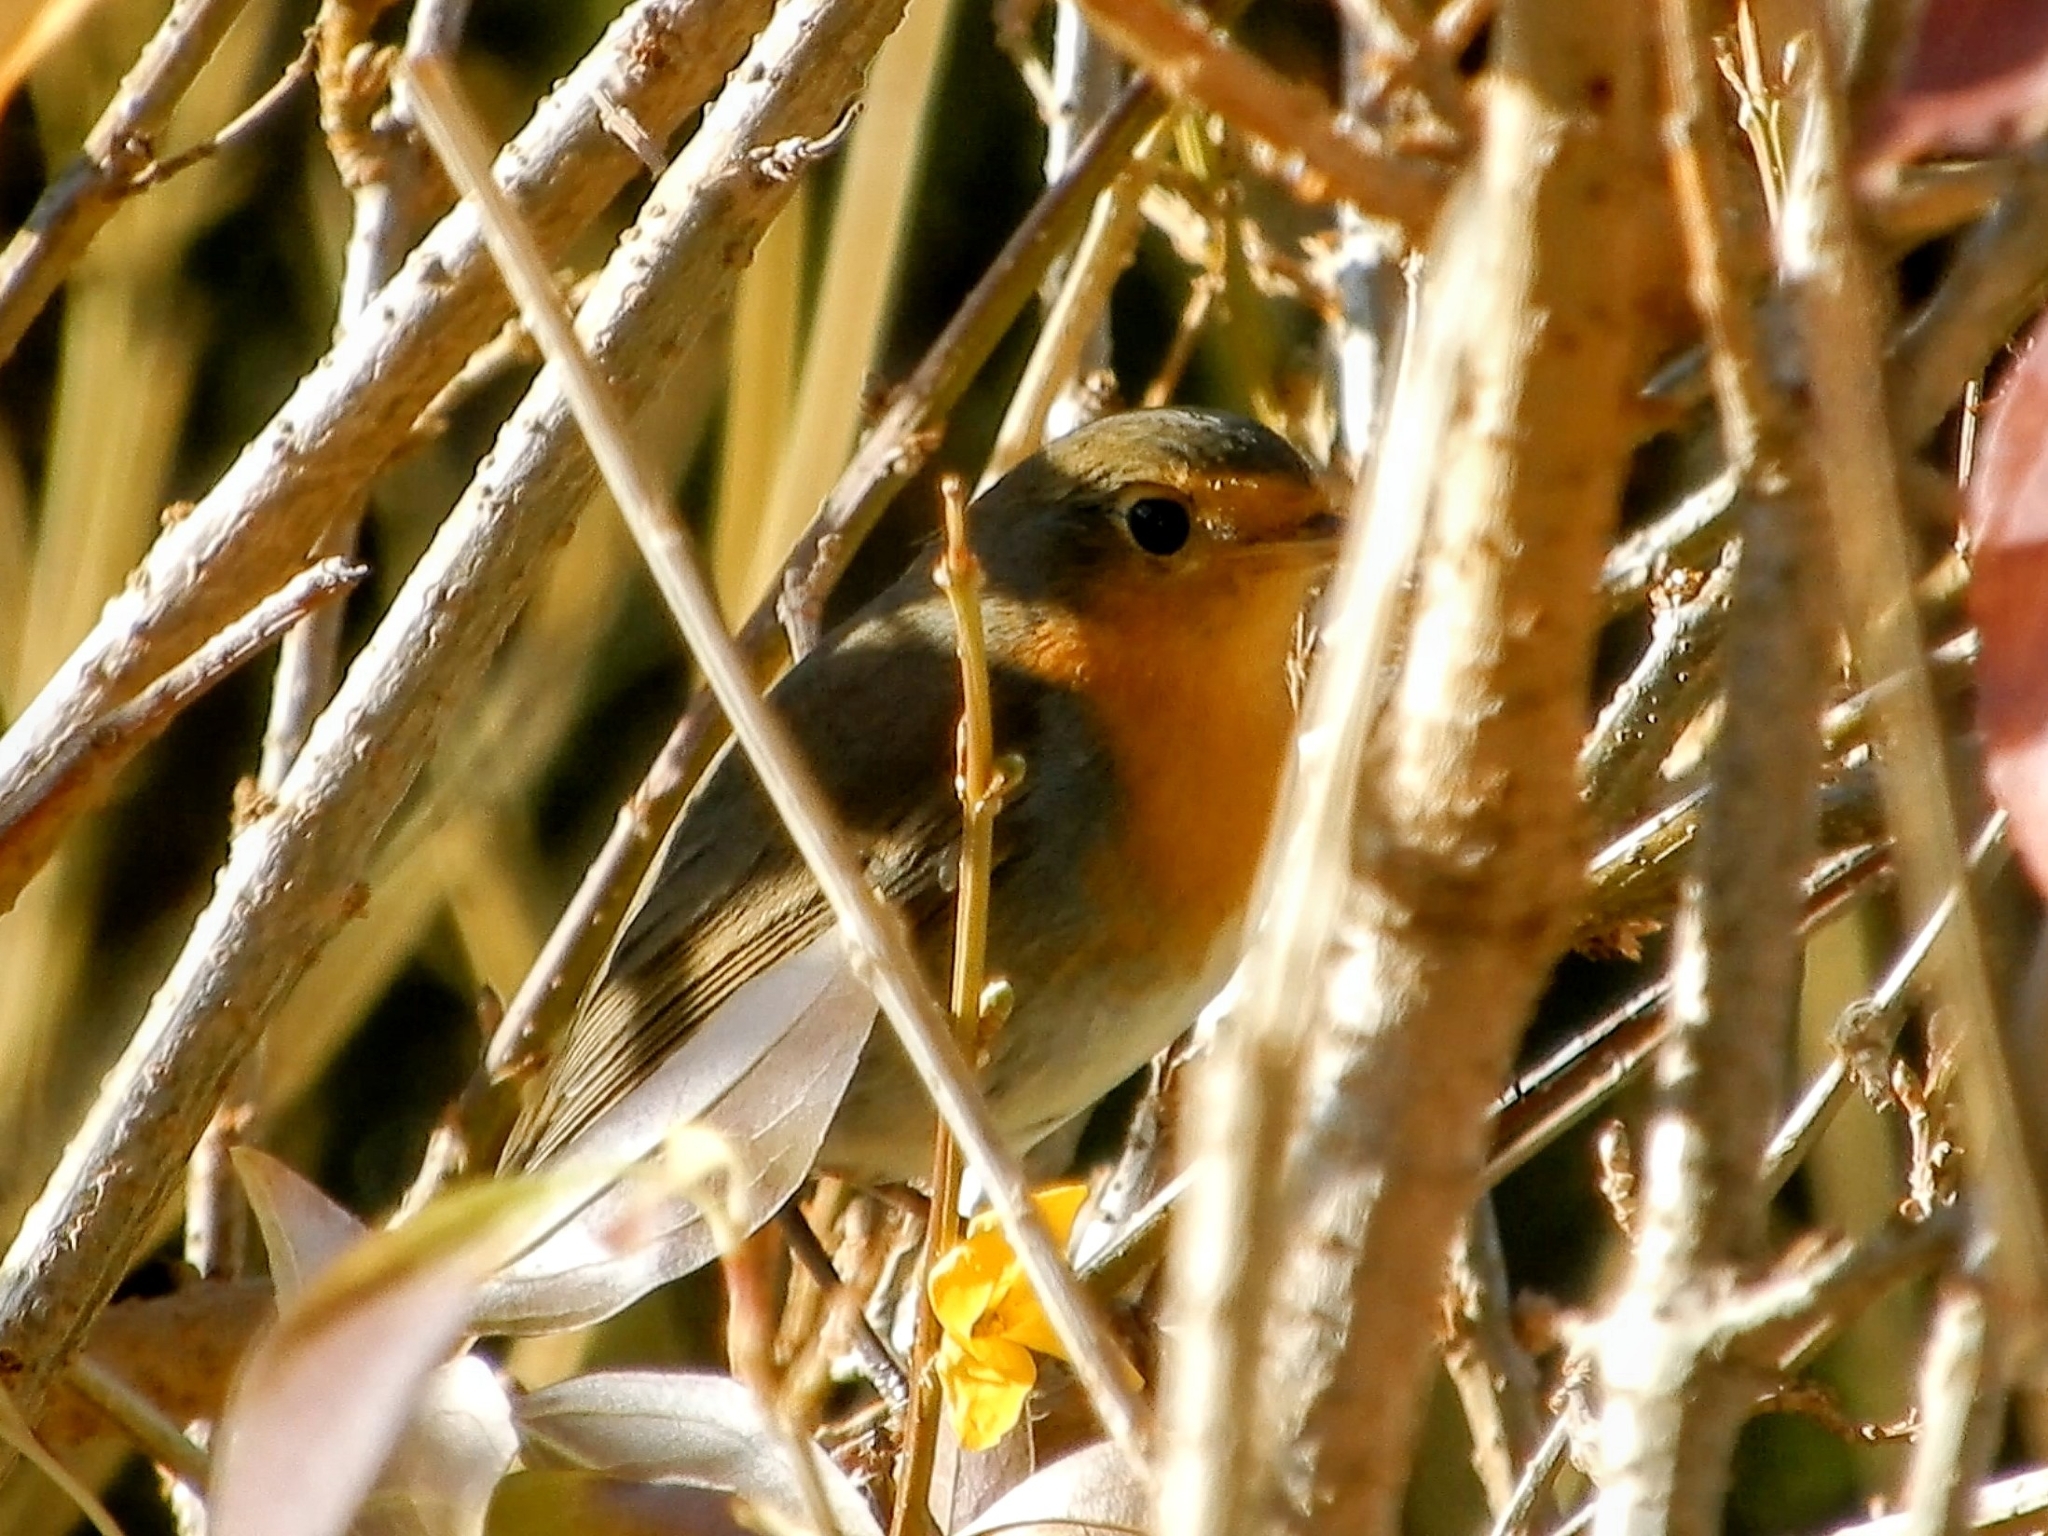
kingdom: Animalia
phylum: Chordata
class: Aves
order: Passeriformes
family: Muscicapidae
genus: Erithacus
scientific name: Erithacus rubecula
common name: European robin
